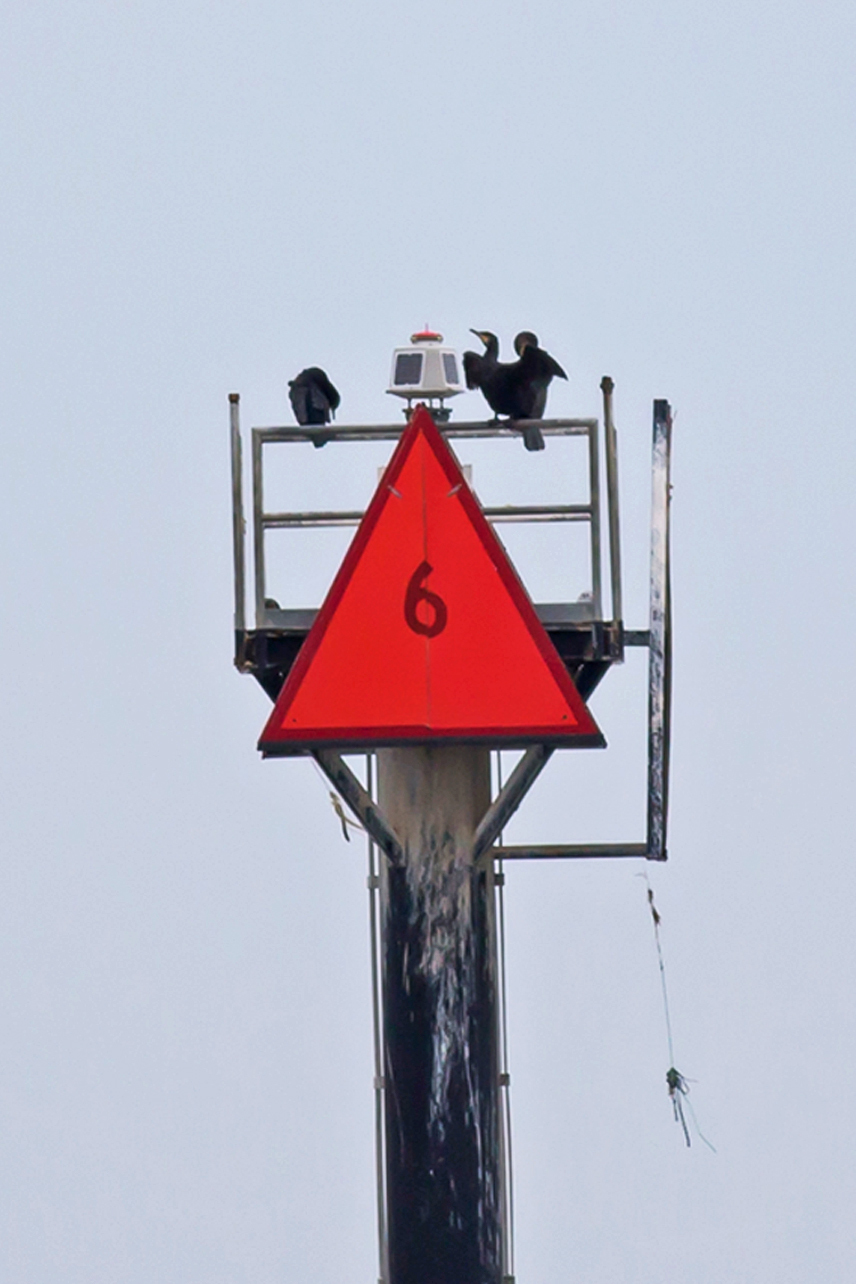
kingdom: Animalia
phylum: Chordata
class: Aves
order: Suliformes
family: Phalacrocoracidae
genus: Phalacrocorax
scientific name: Phalacrocorax auritus
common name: Double-crested cormorant
